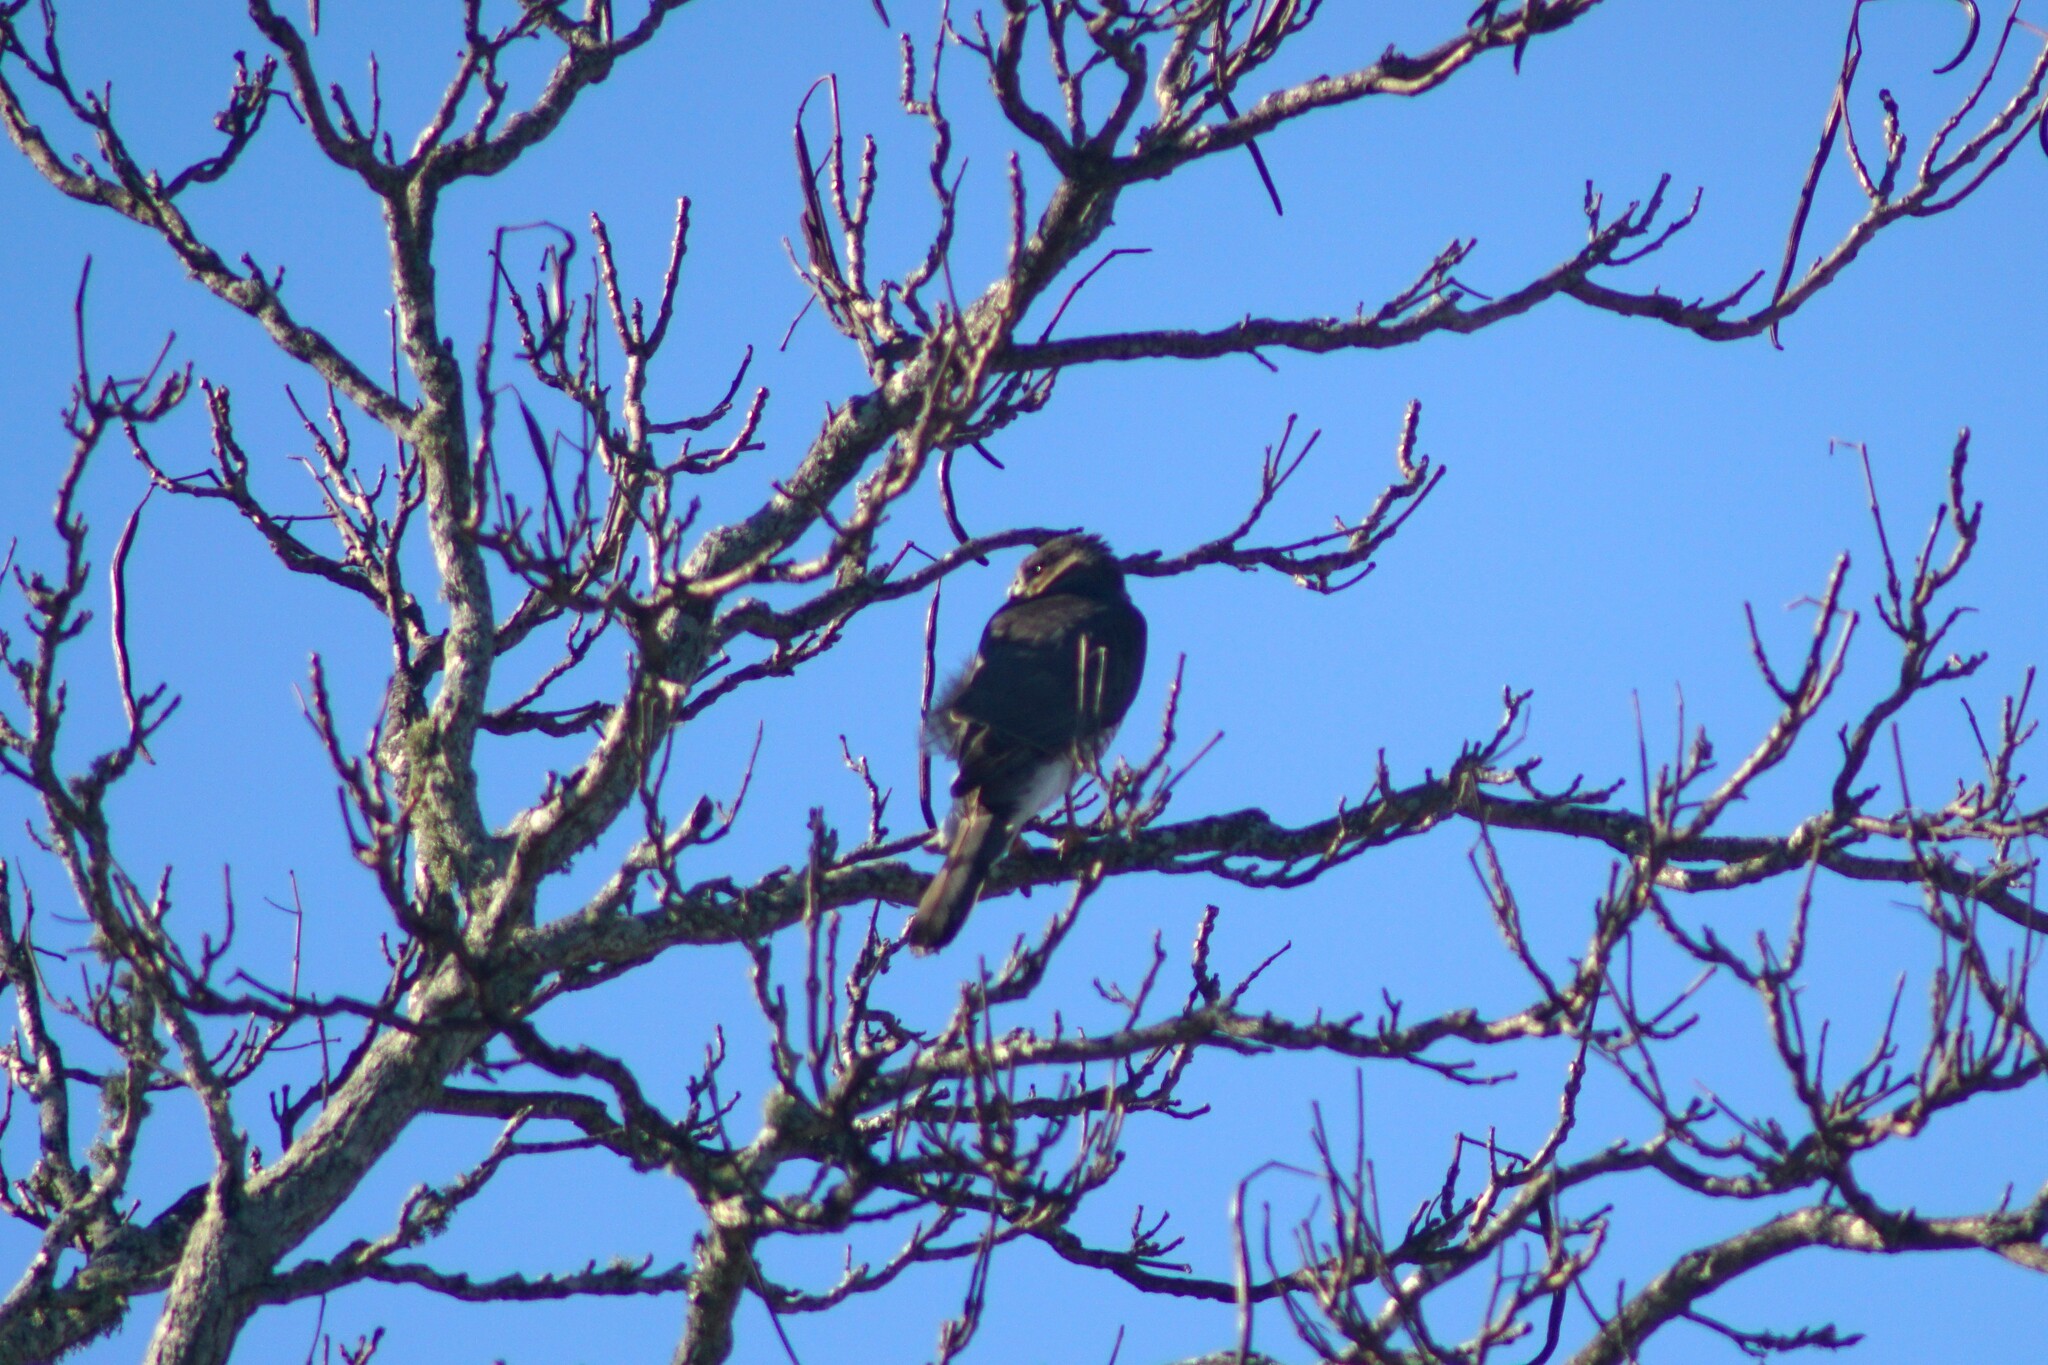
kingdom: Animalia
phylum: Chordata
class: Aves
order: Accipitriformes
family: Accipitridae
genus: Accipiter
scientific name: Accipiter cooperii
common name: Cooper's hawk
